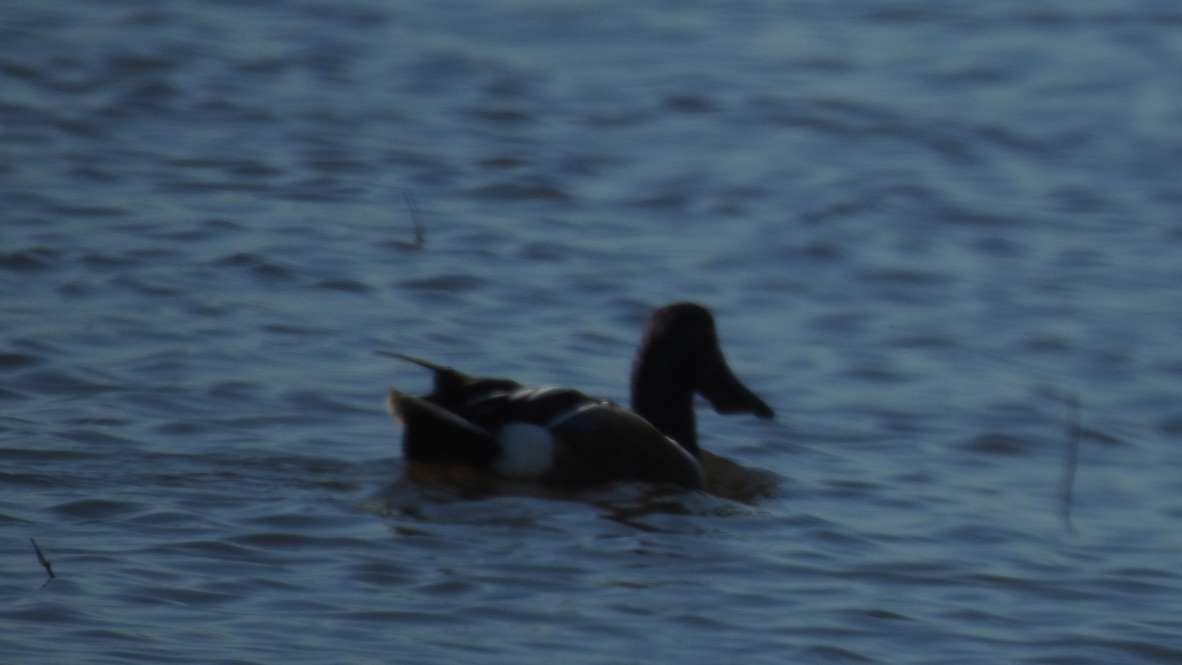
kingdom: Animalia
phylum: Chordata
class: Aves
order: Anseriformes
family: Anatidae
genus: Spatula
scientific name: Spatula clypeata
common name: Northern shoveler
